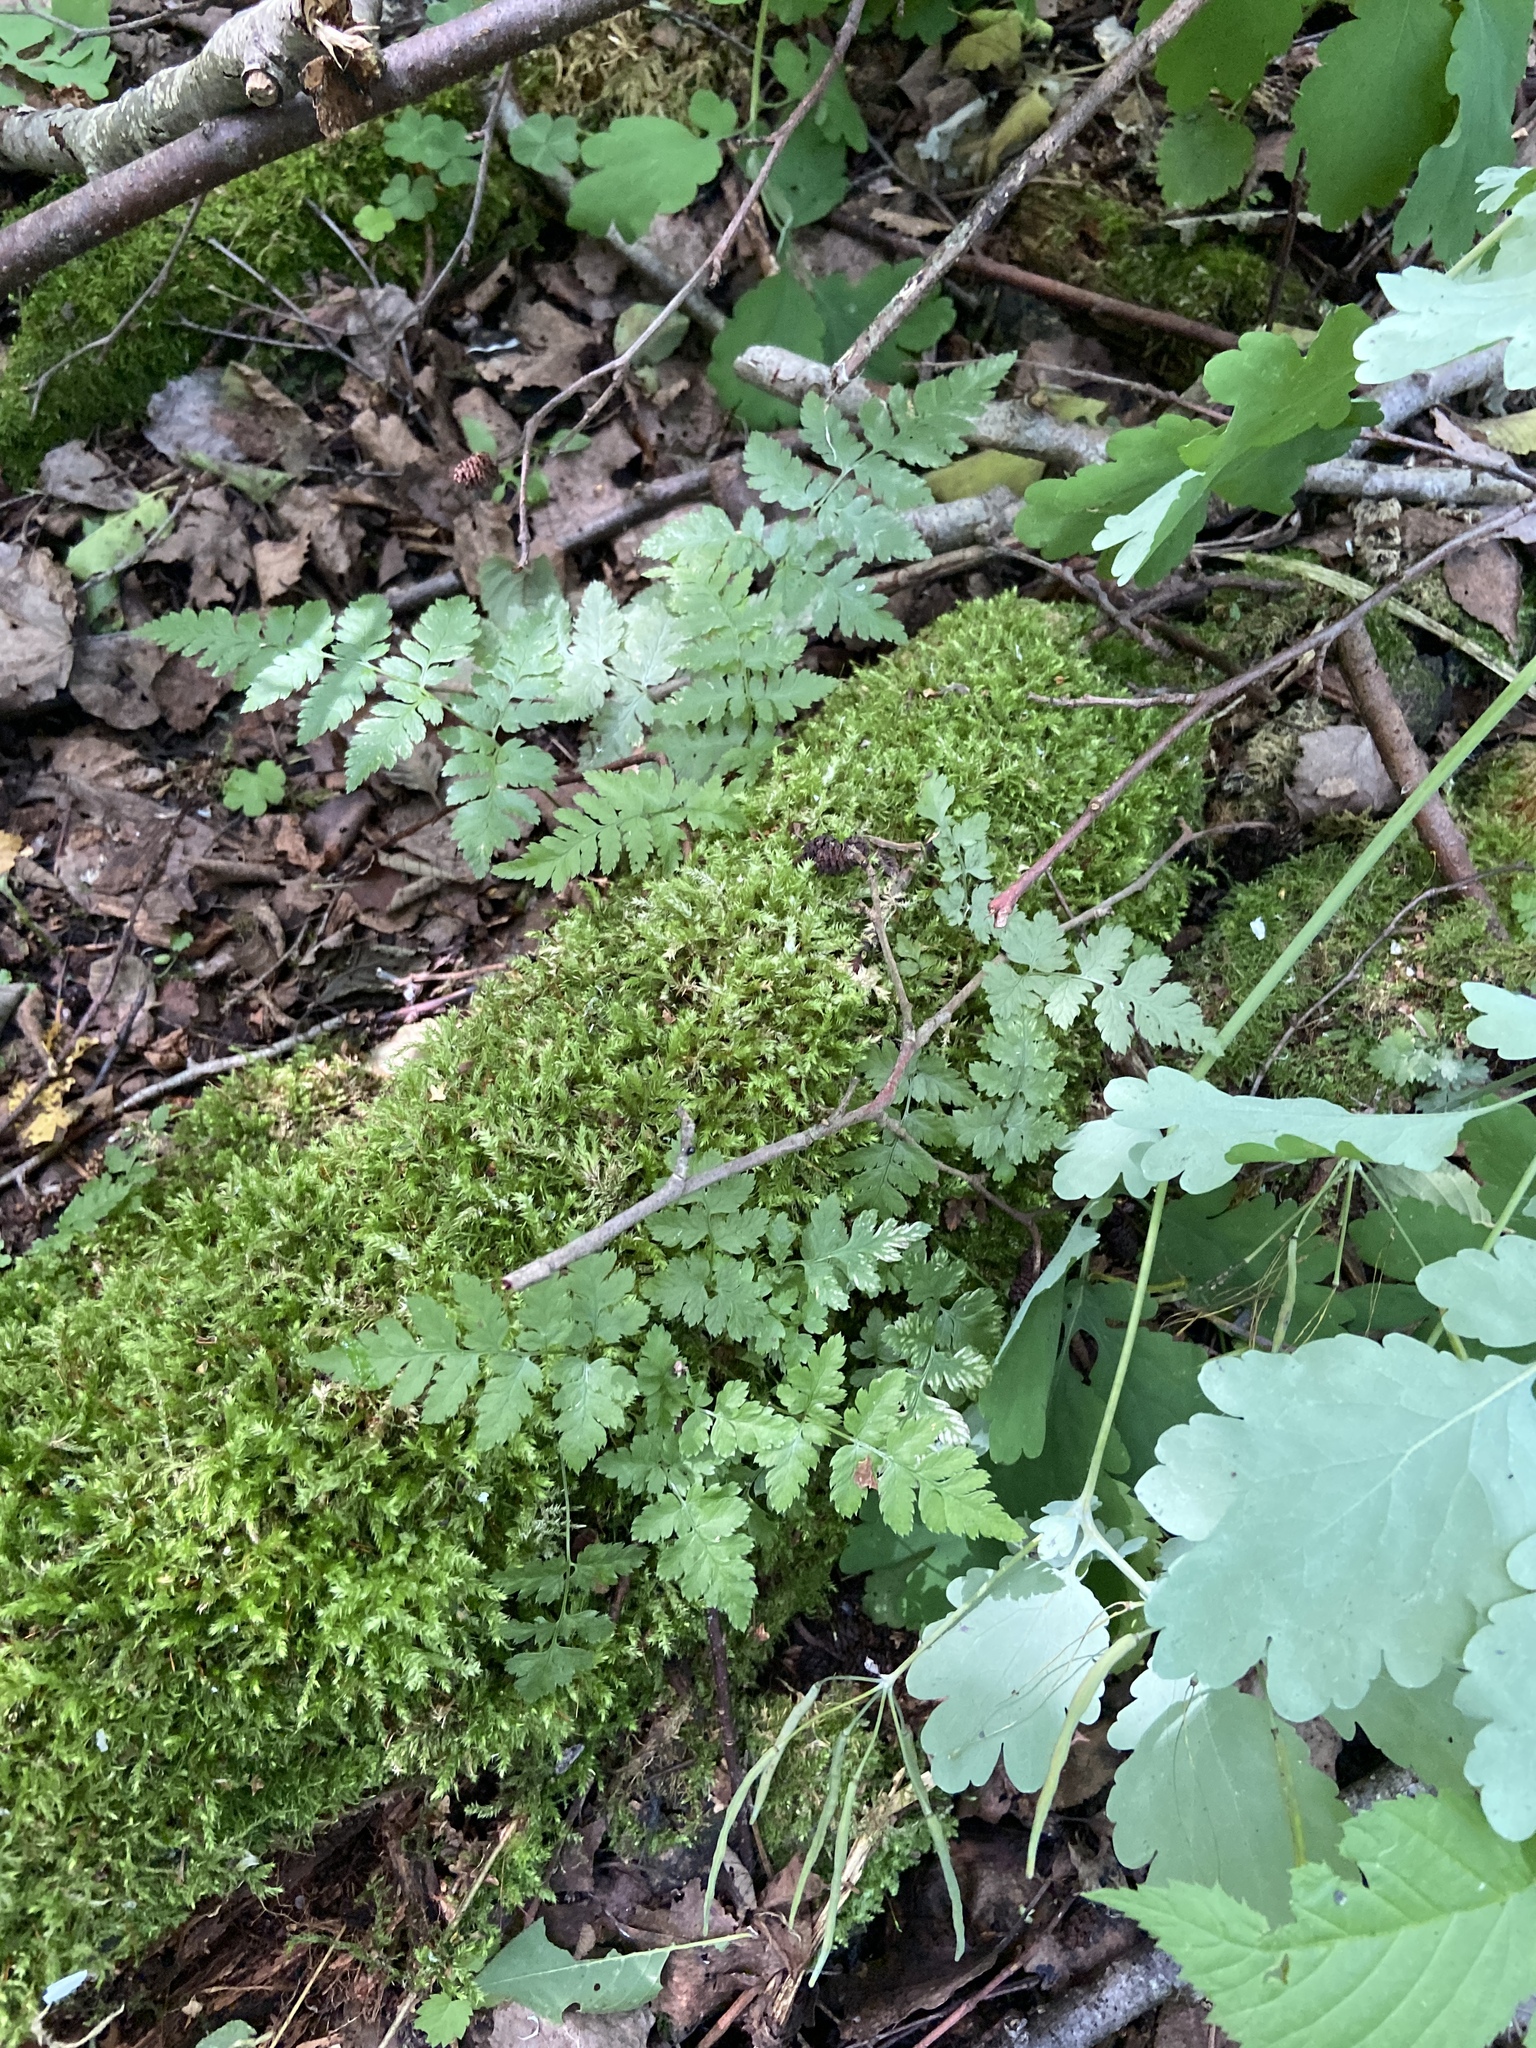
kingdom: Plantae
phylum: Tracheophyta
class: Polypodiopsida
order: Polypodiales
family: Dryopteridaceae
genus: Dryopteris
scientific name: Dryopteris carthusiana
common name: Narrow buckler-fern
